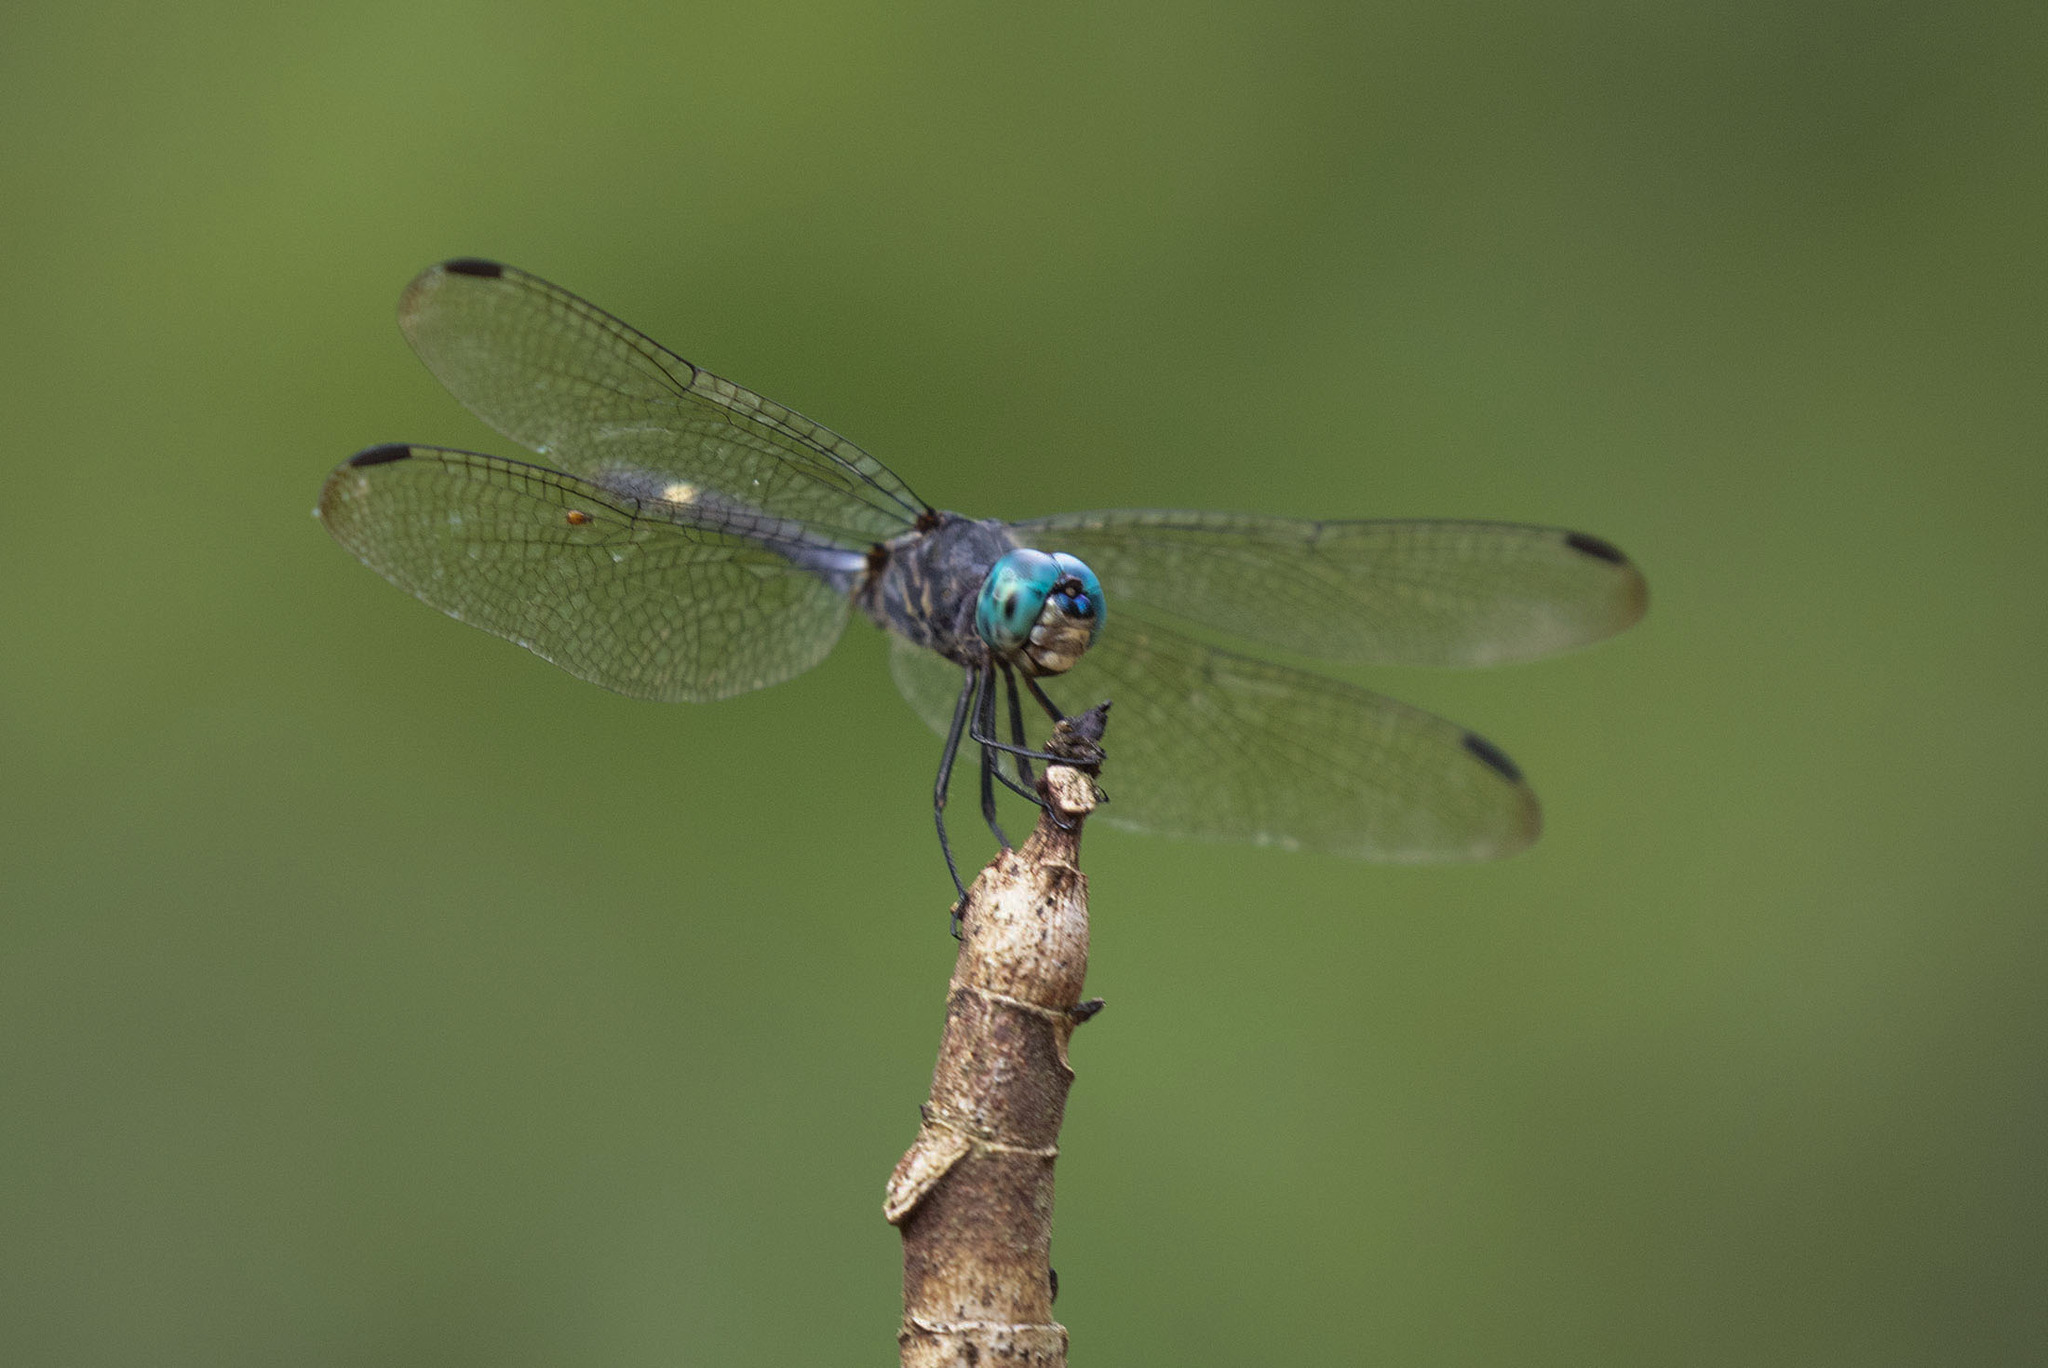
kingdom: Animalia
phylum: Arthropoda
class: Insecta
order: Odonata
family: Libellulidae
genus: Micrathyria
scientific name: Micrathyria atra
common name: Black dasher
